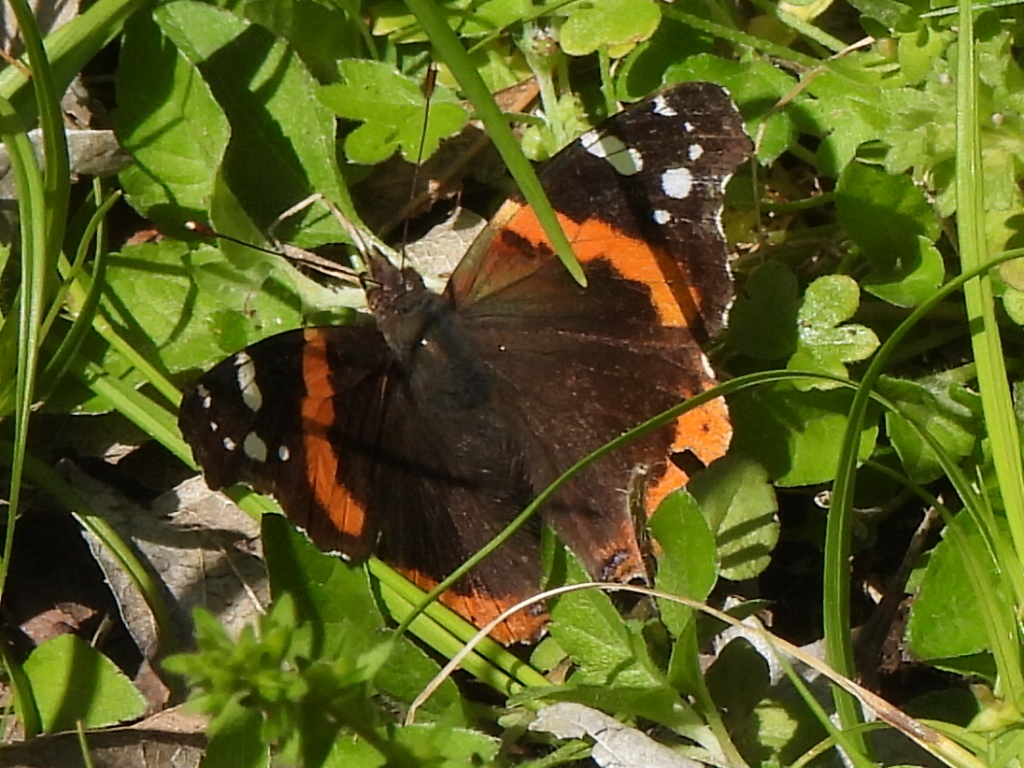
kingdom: Animalia
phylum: Arthropoda
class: Insecta
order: Lepidoptera
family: Nymphalidae
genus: Vanessa
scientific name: Vanessa atalanta
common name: Red admiral
